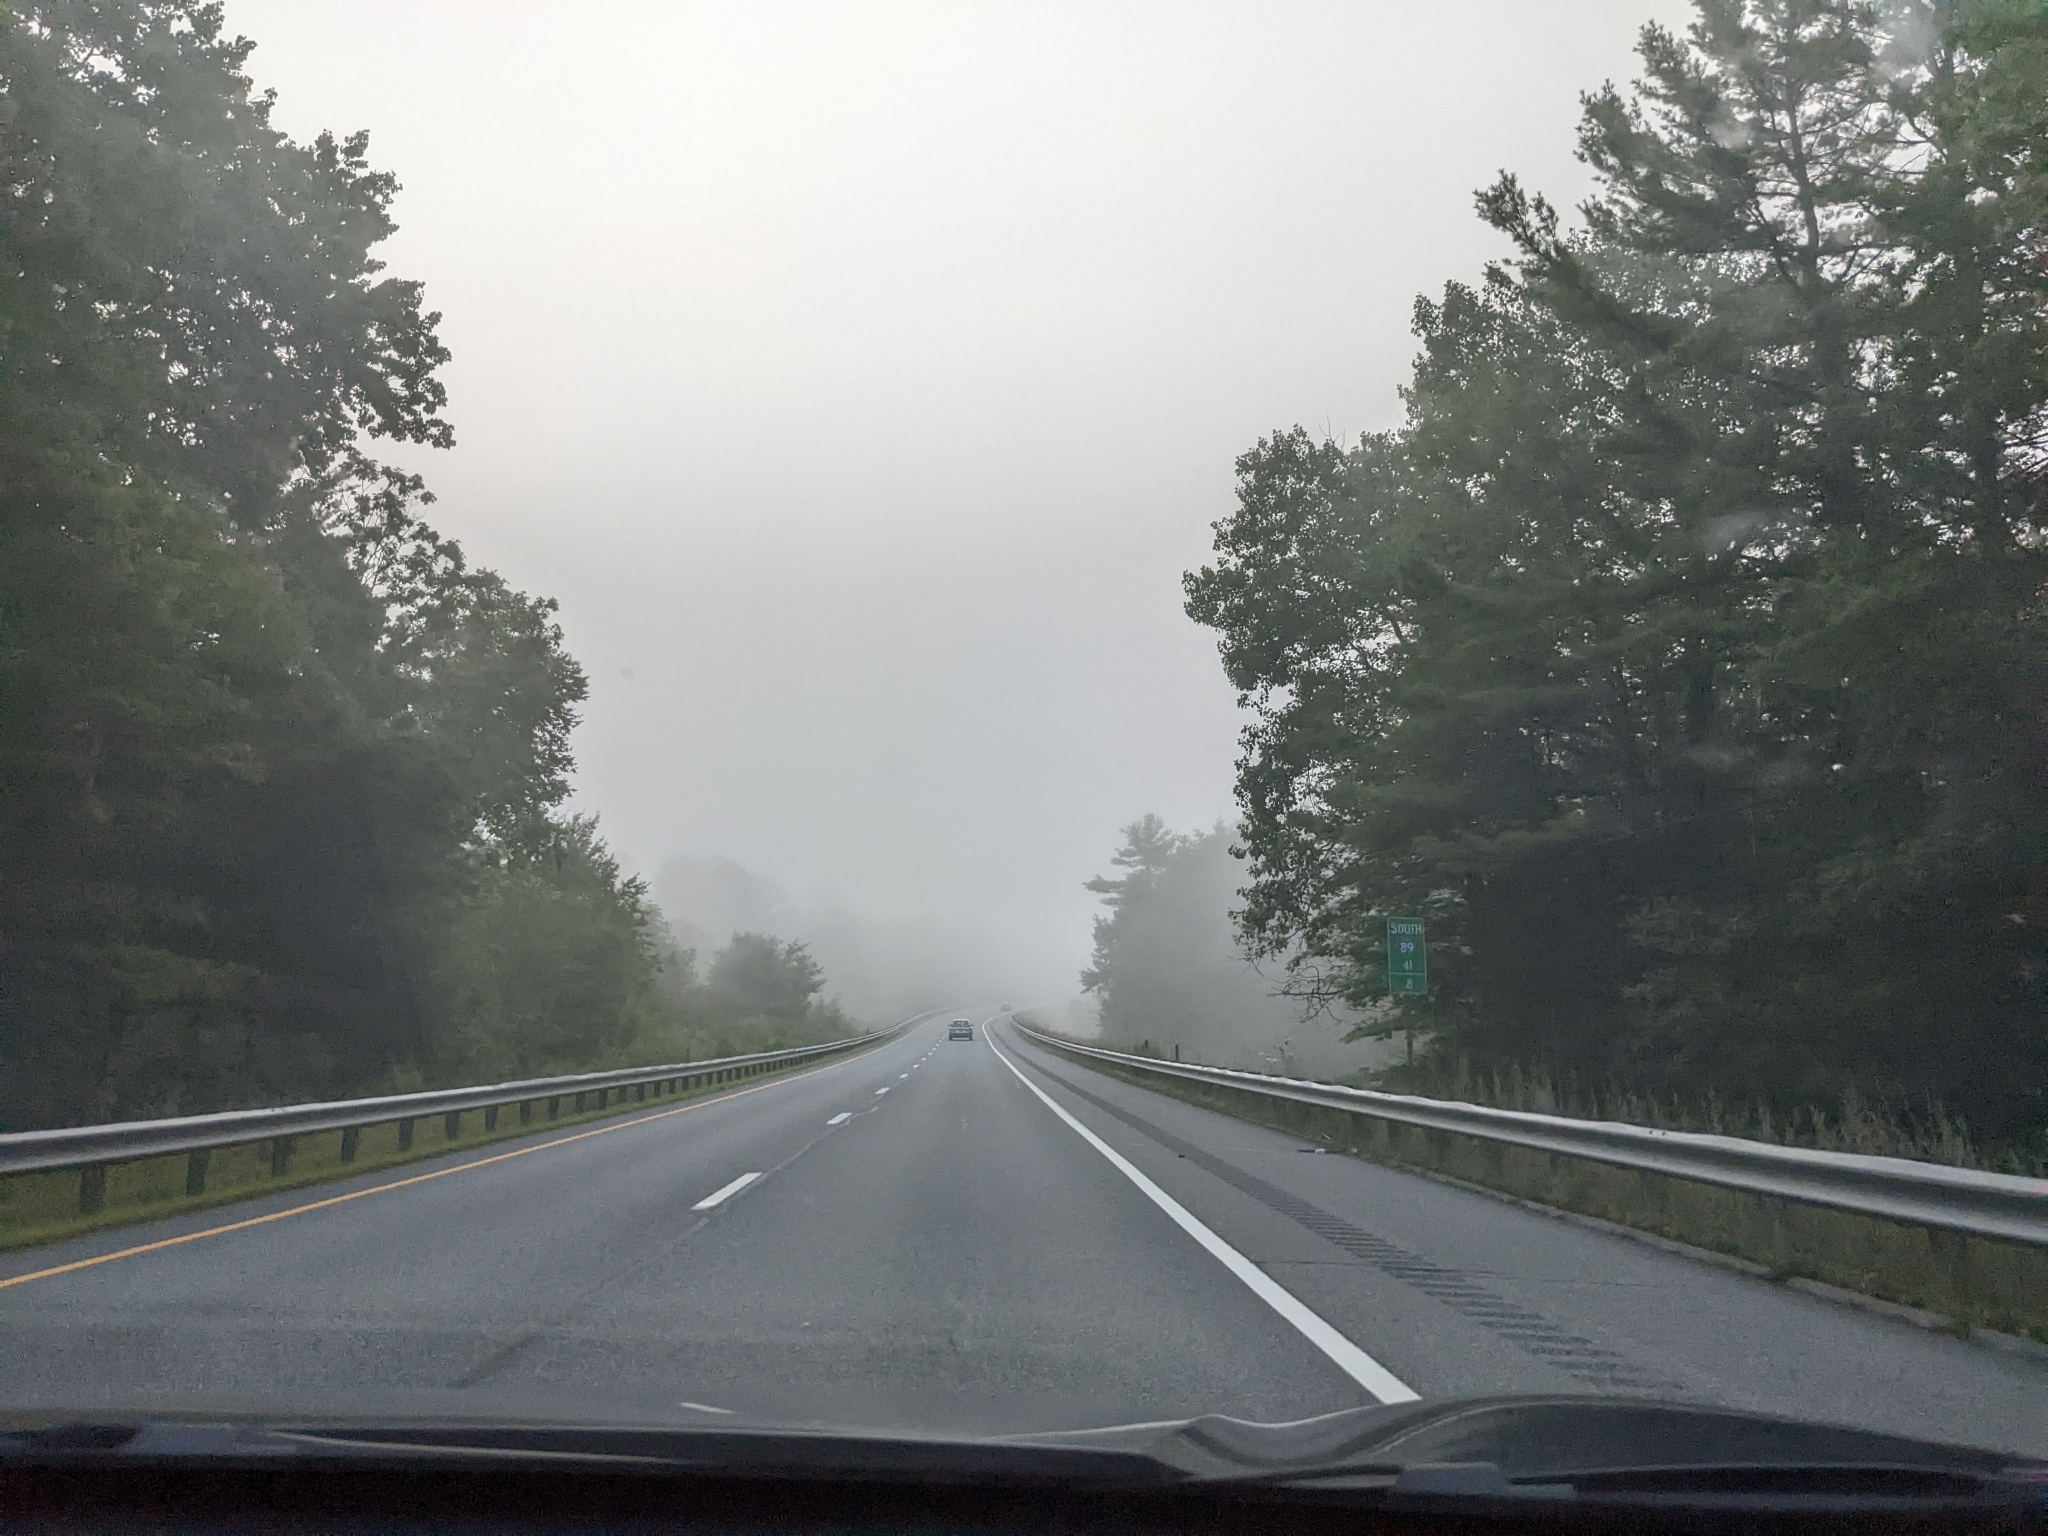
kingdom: Plantae
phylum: Tracheophyta
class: Pinopsida
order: Pinales
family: Pinaceae
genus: Pinus
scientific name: Pinus strobus
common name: Weymouth pine
